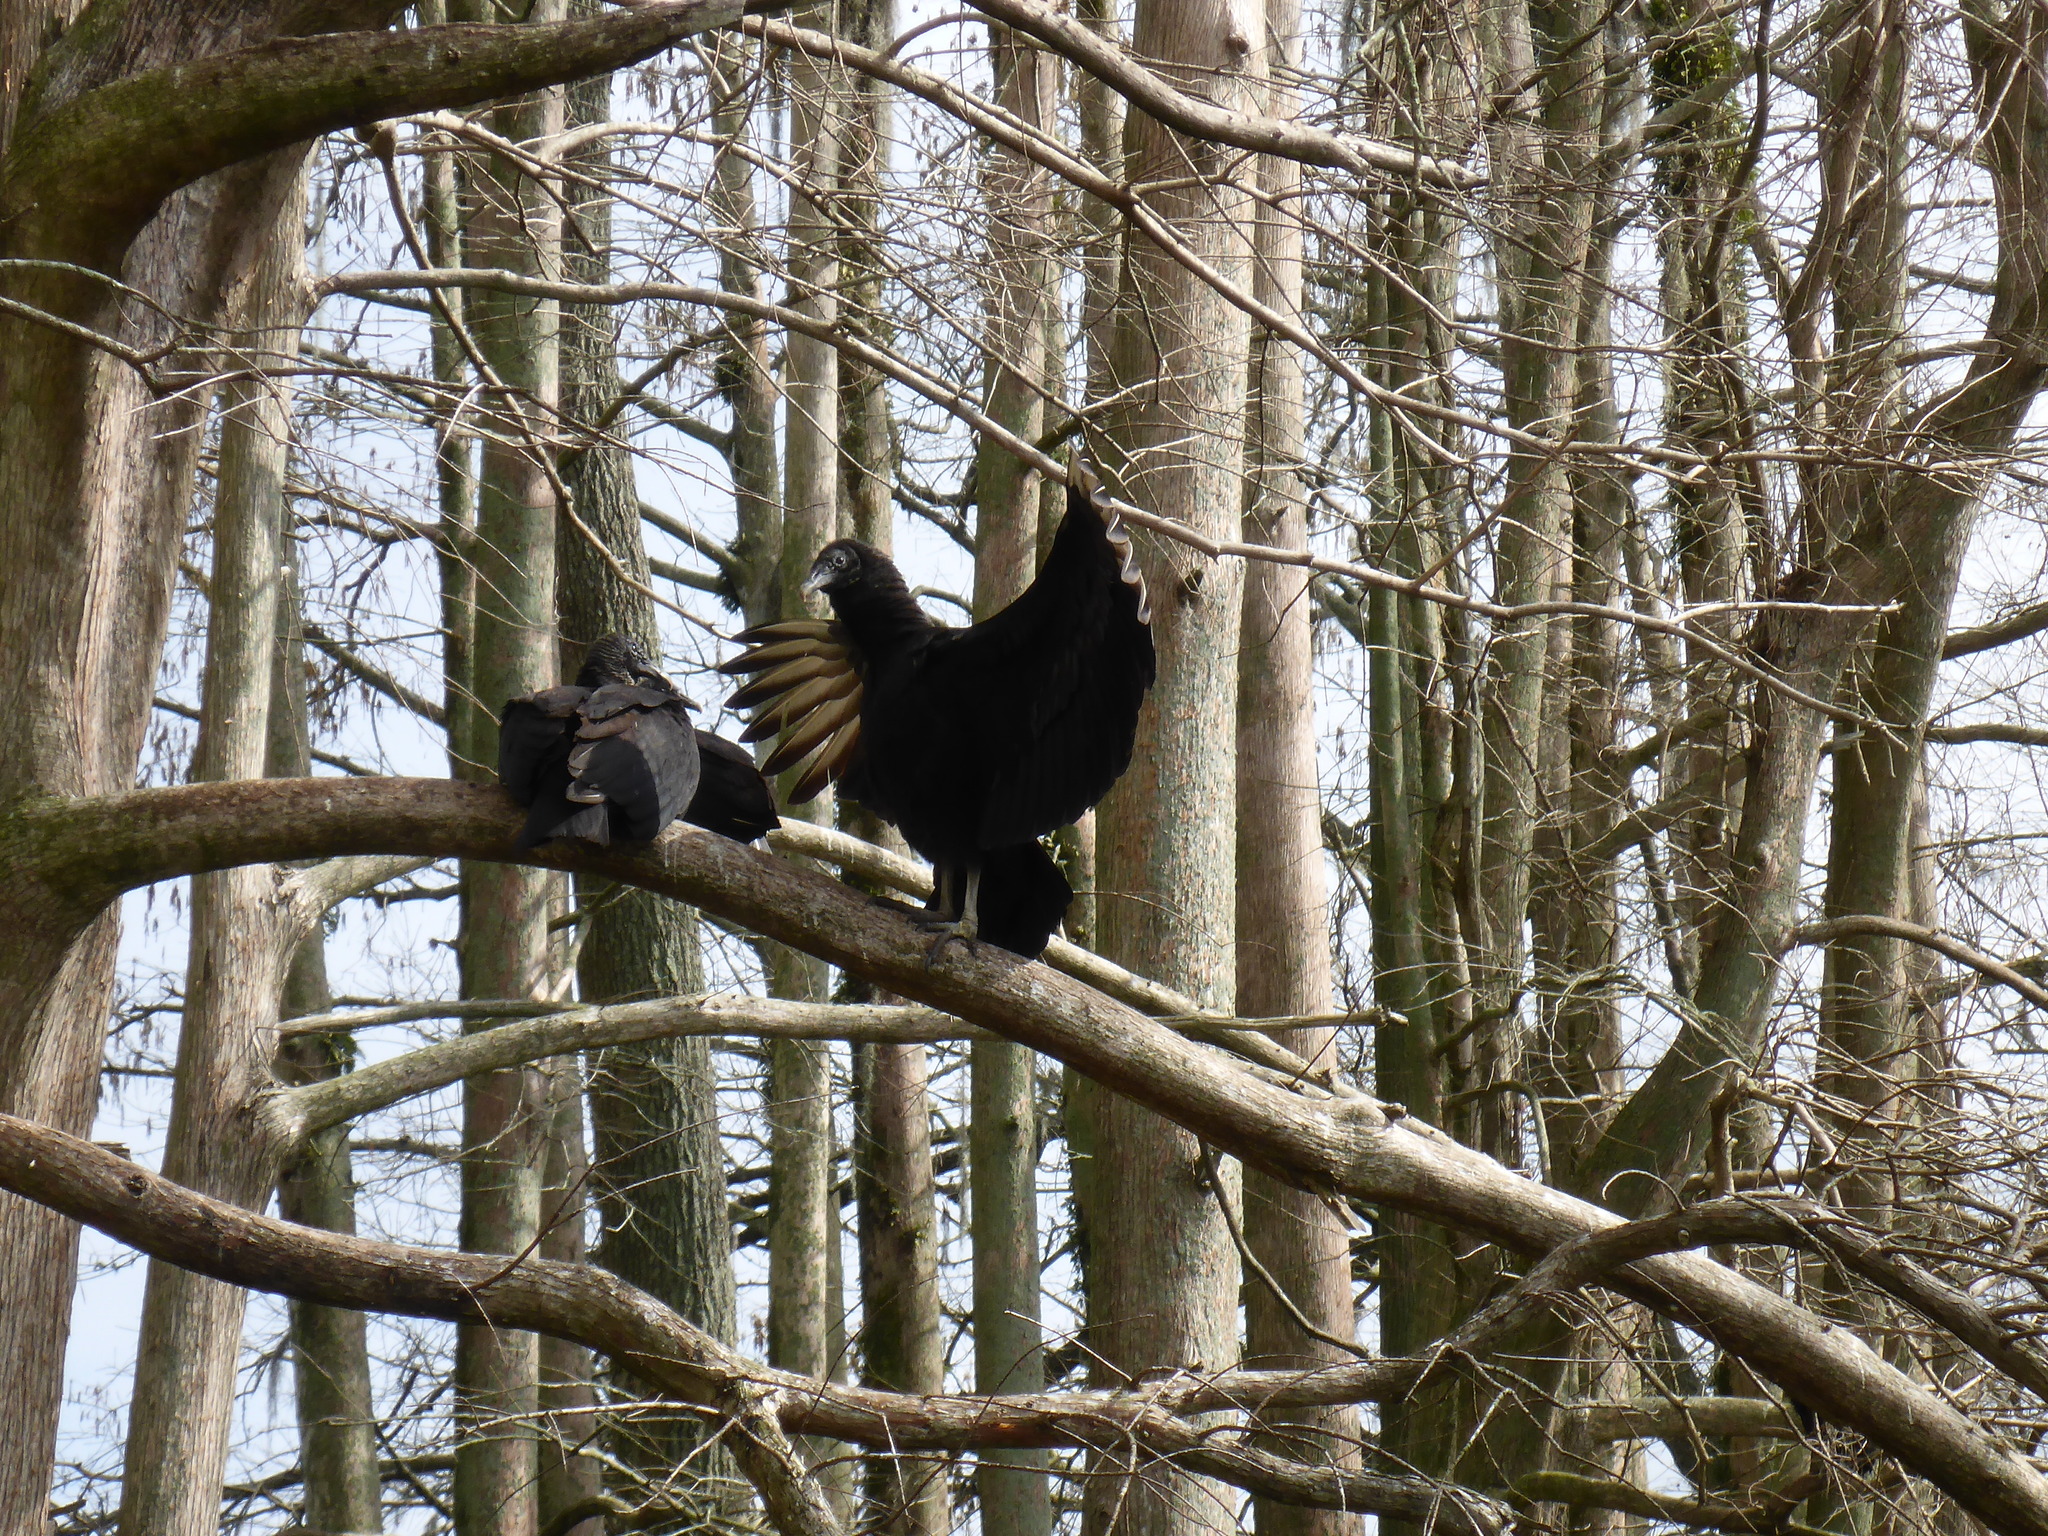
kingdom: Animalia
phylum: Chordata
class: Aves
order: Accipitriformes
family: Cathartidae
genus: Coragyps
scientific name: Coragyps atratus
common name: Black vulture
